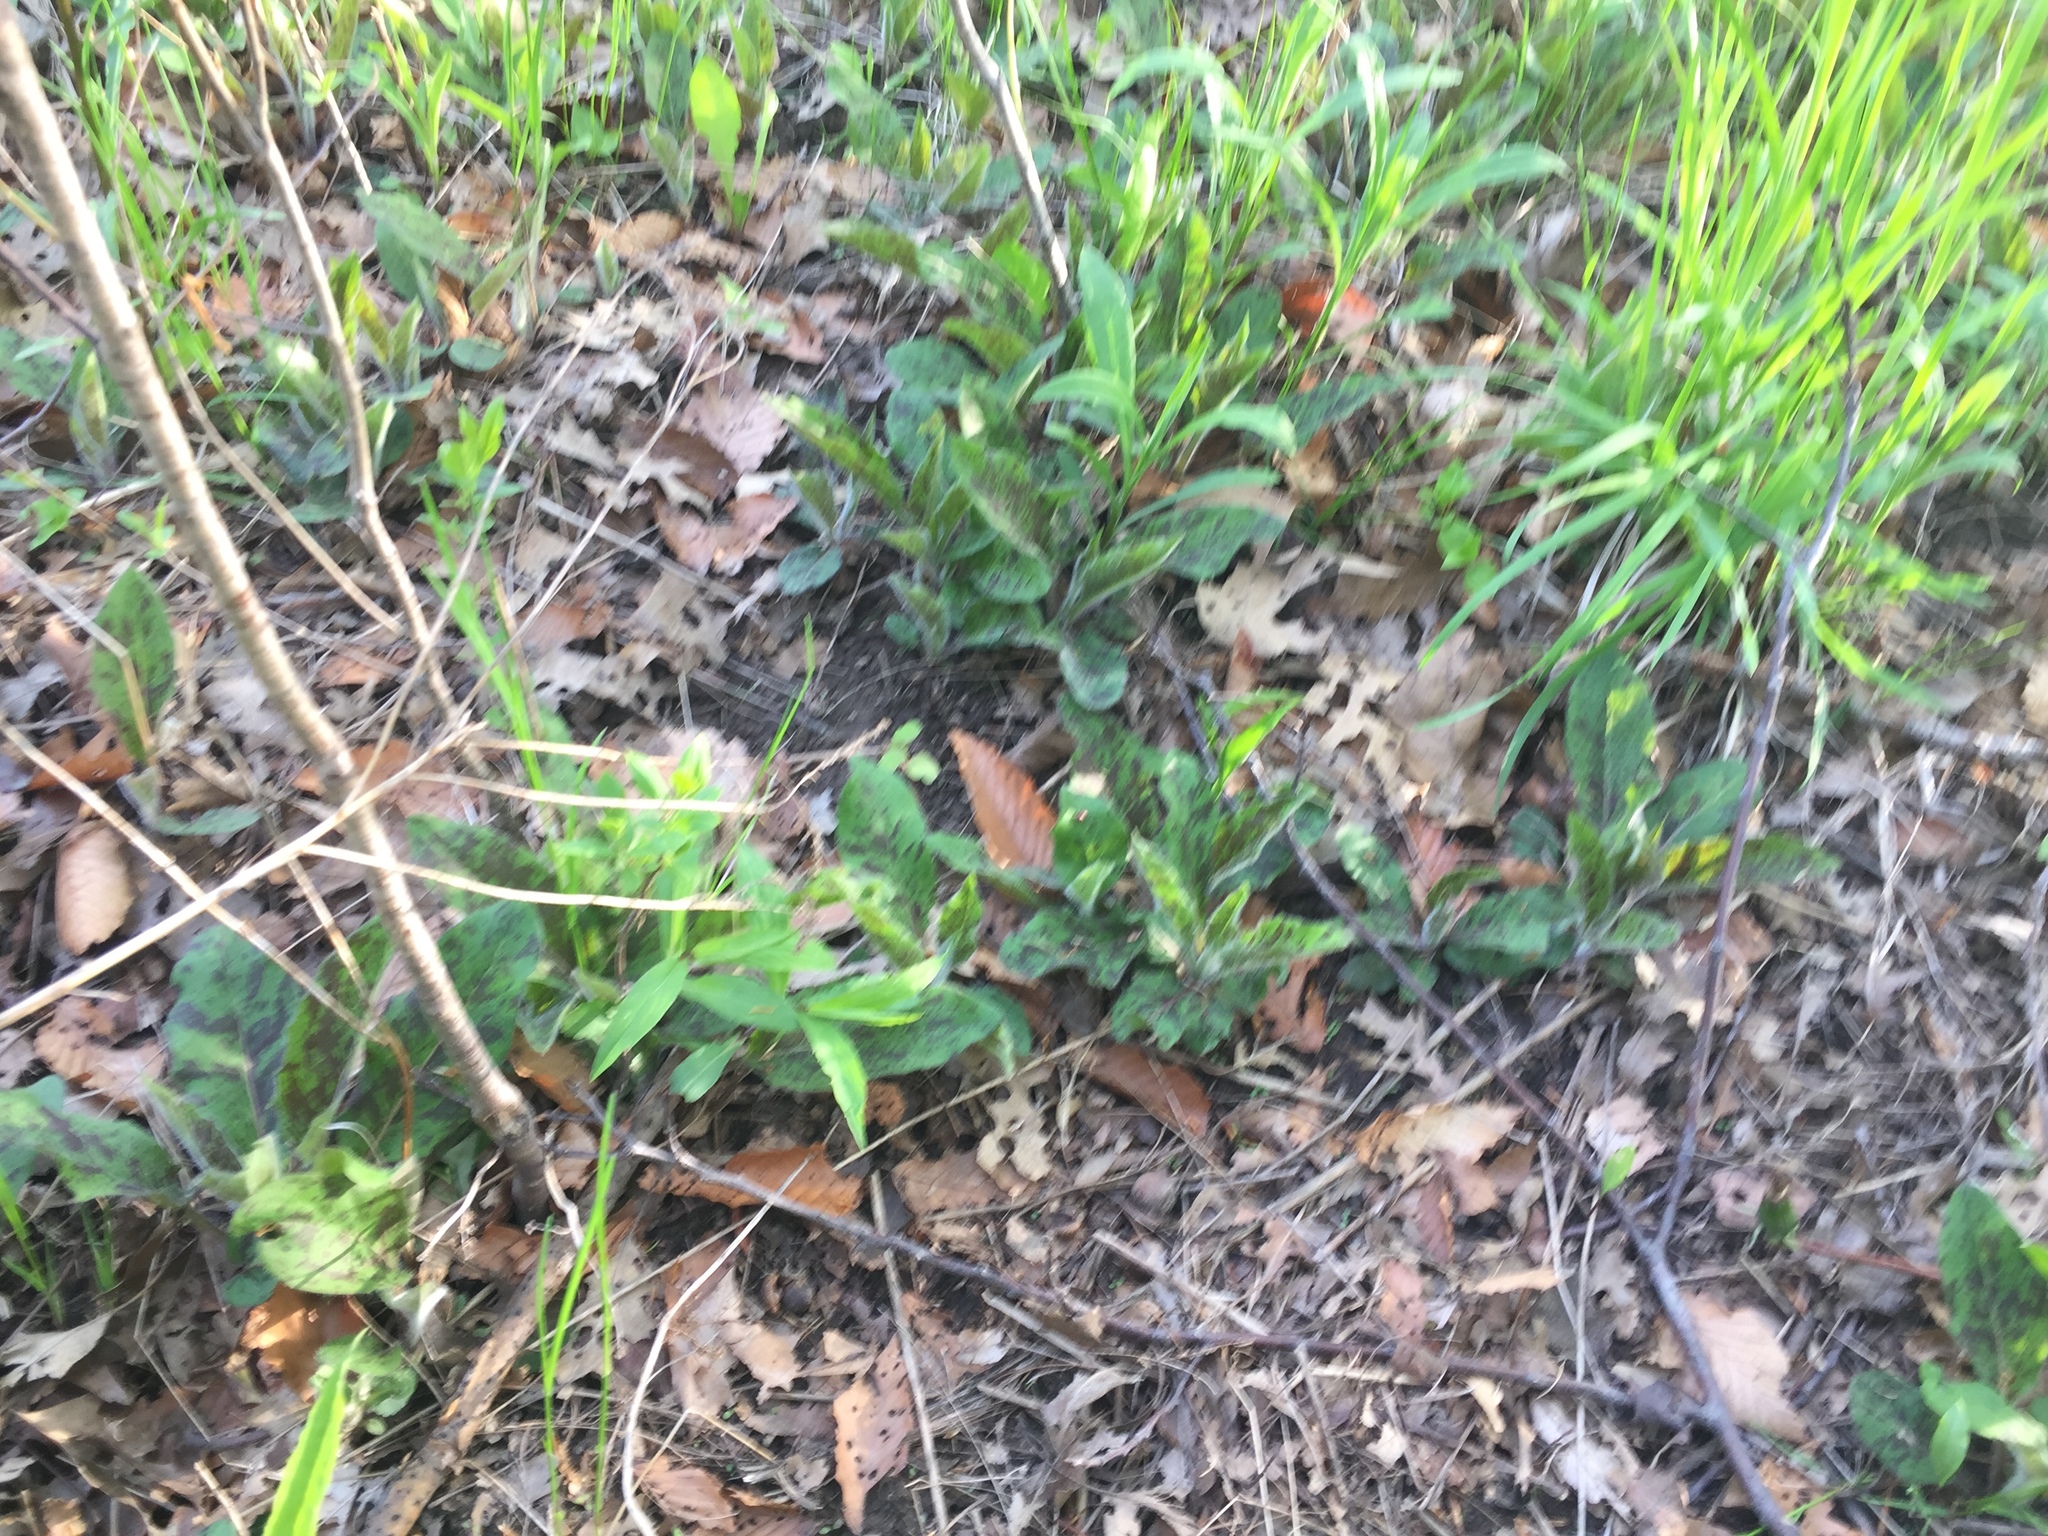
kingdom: Plantae
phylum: Tracheophyta
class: Magnoliopsida
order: Asterales
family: Asteraceae
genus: Hieracium
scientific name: Hieracium maculatum
